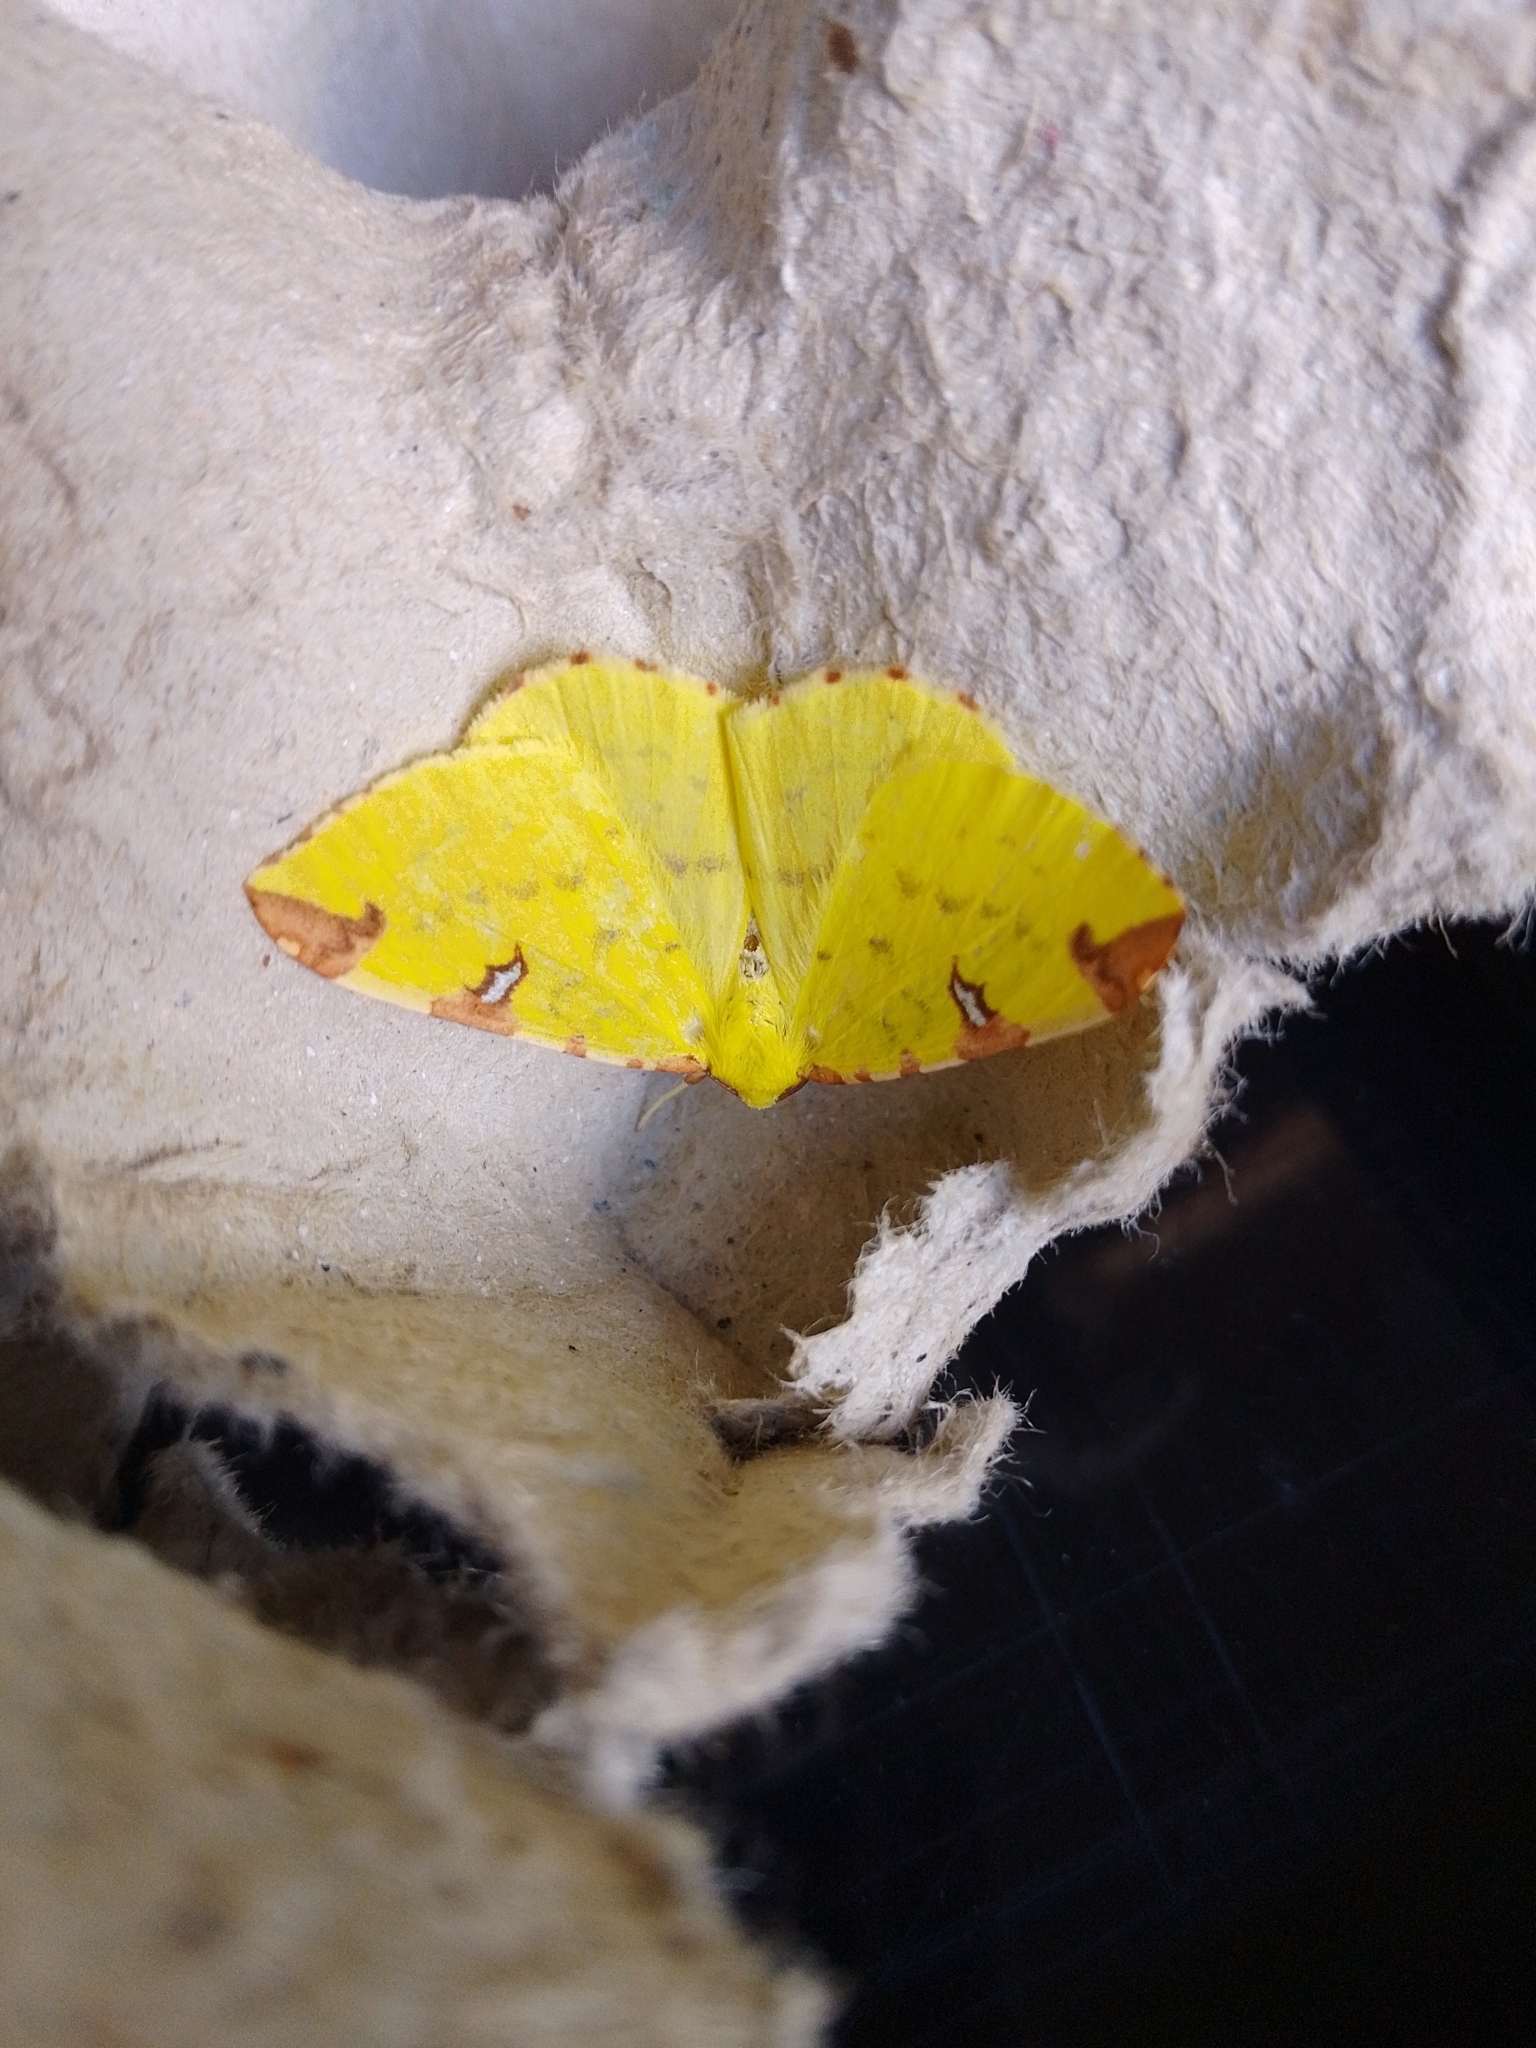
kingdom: Animalia
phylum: Arthropoda
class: Insecta
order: Lepidoptera
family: Geometridae
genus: Opisthograptis
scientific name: Opisthograptis luteolata
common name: Brimstone moth
